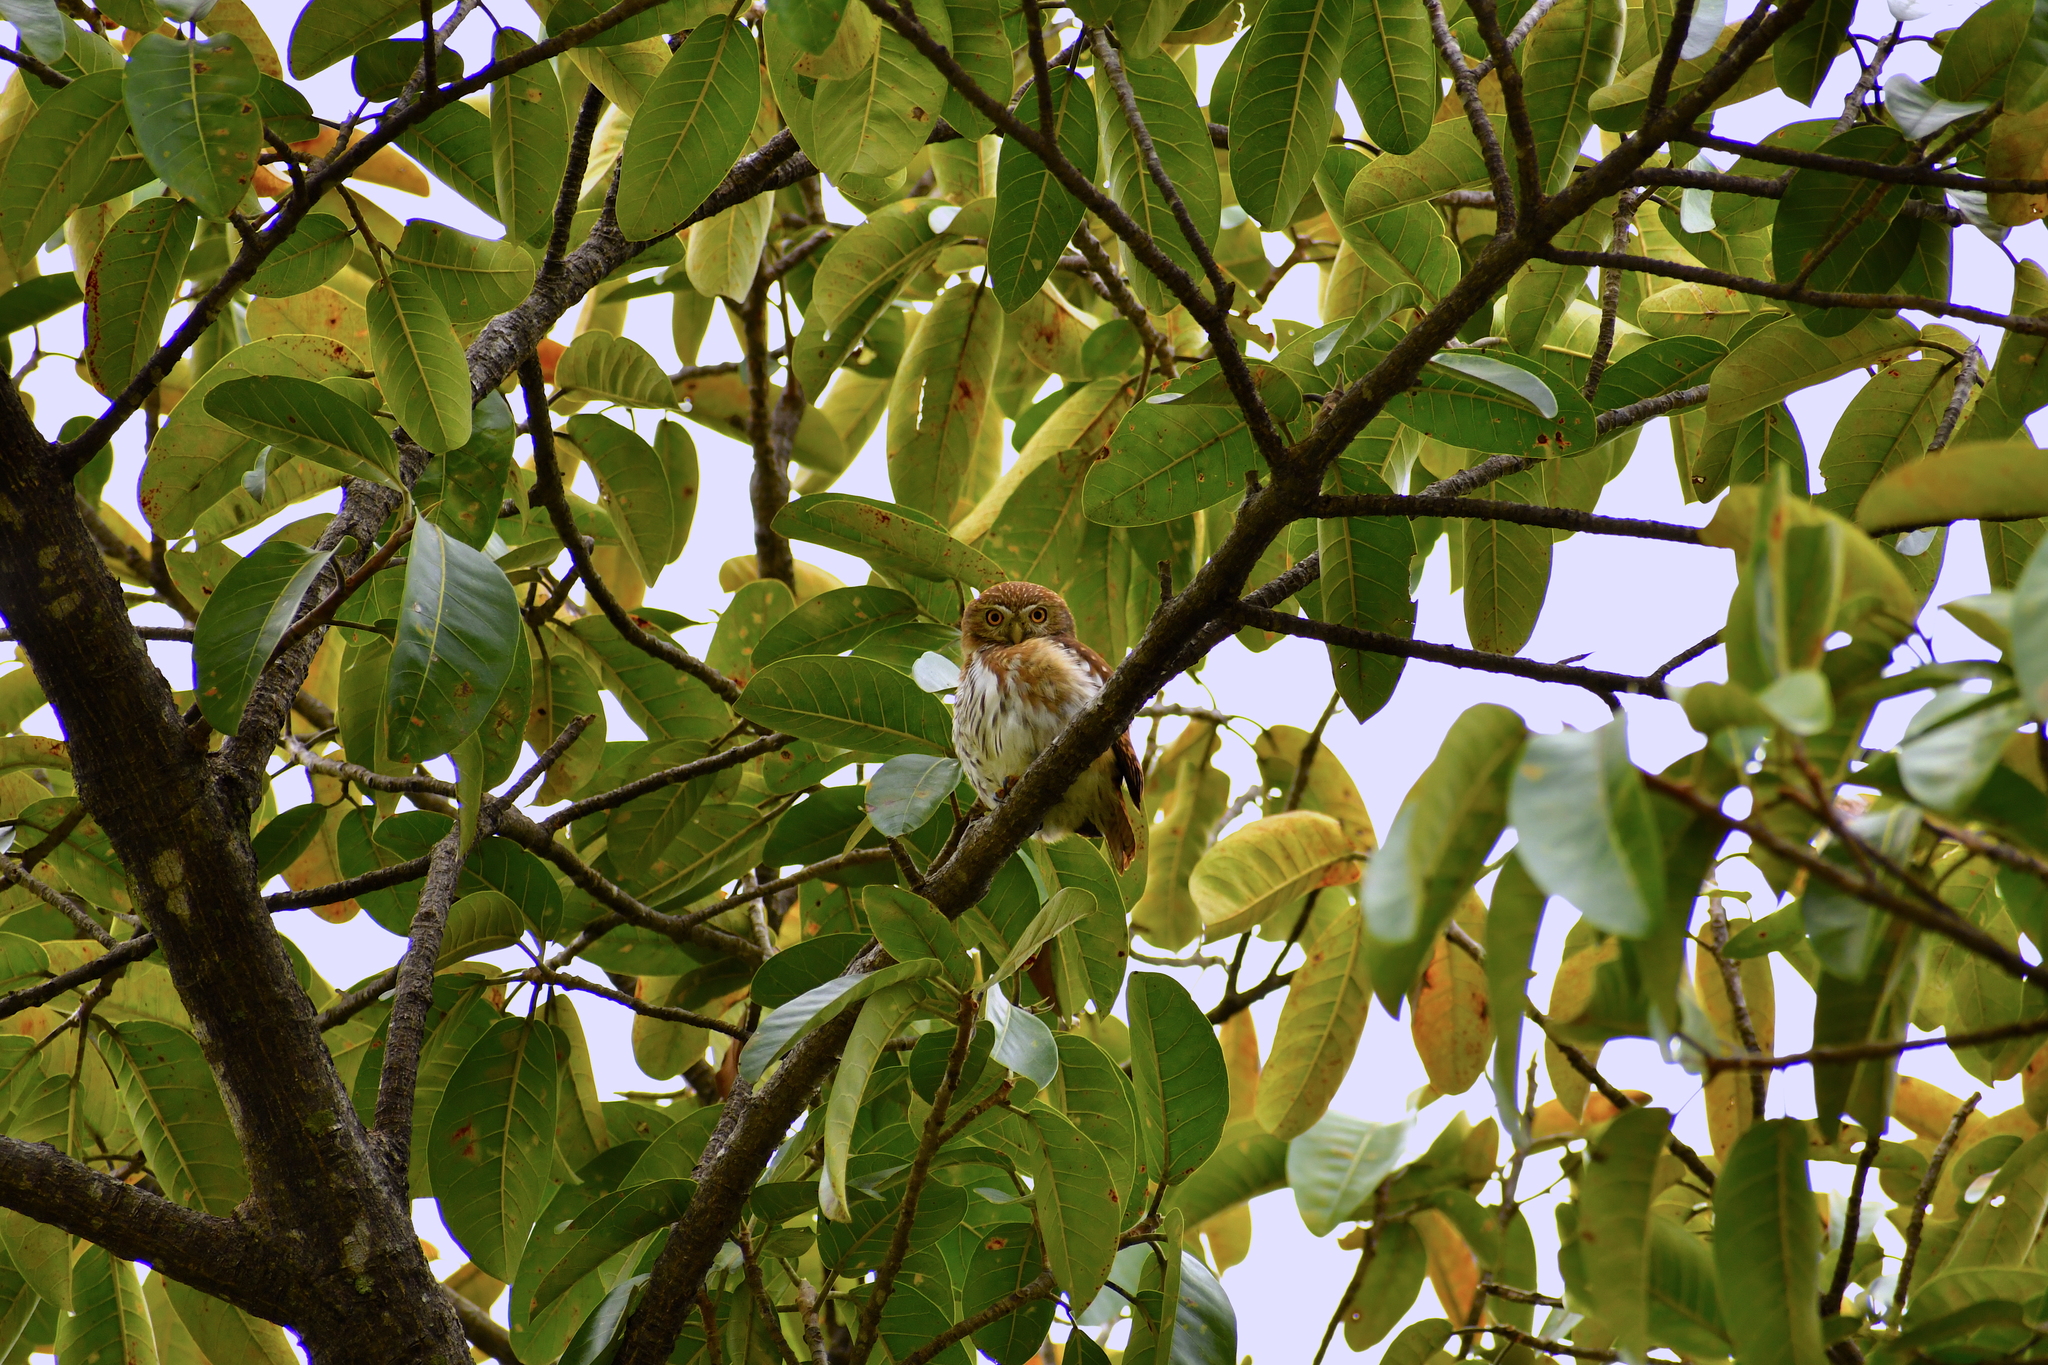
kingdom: Animalia
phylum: Chordata
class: Aves
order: Strigiformes
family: Strigidae
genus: Glaucidium
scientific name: Glaucidium brasilianum
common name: Ferruginous pygmy-owl
